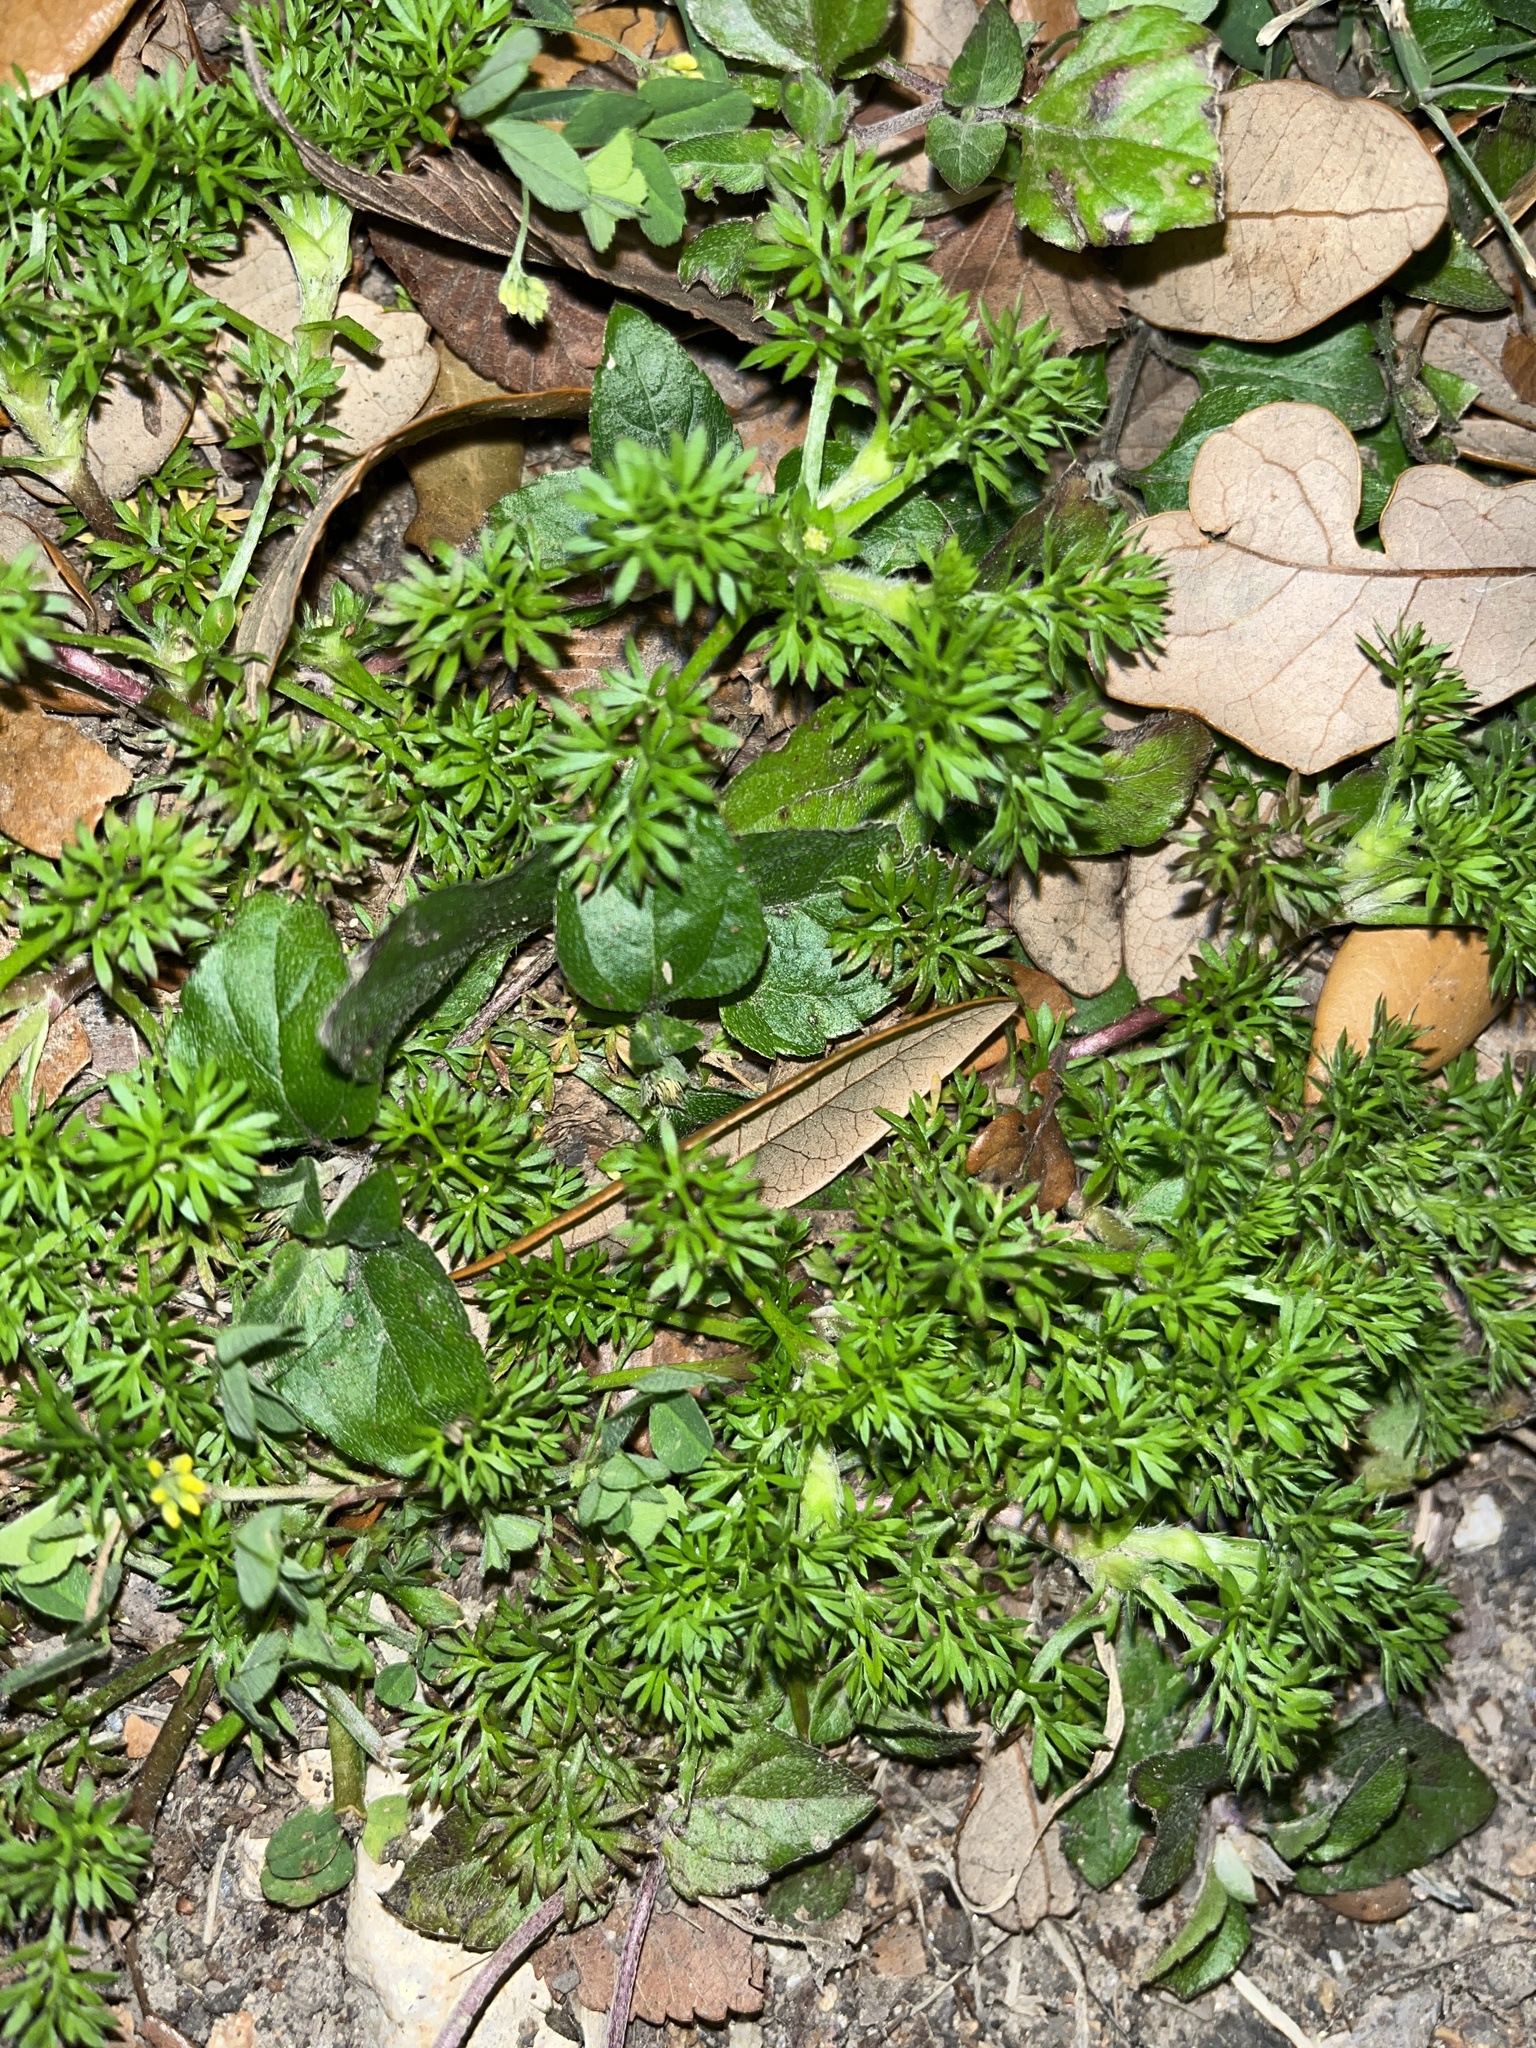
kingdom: Plantae
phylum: Tracheophyta
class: Magnoliopsida
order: Asterales
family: Asteraceae
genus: Soliva
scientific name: Soliva sessilis
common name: Field burrweed
